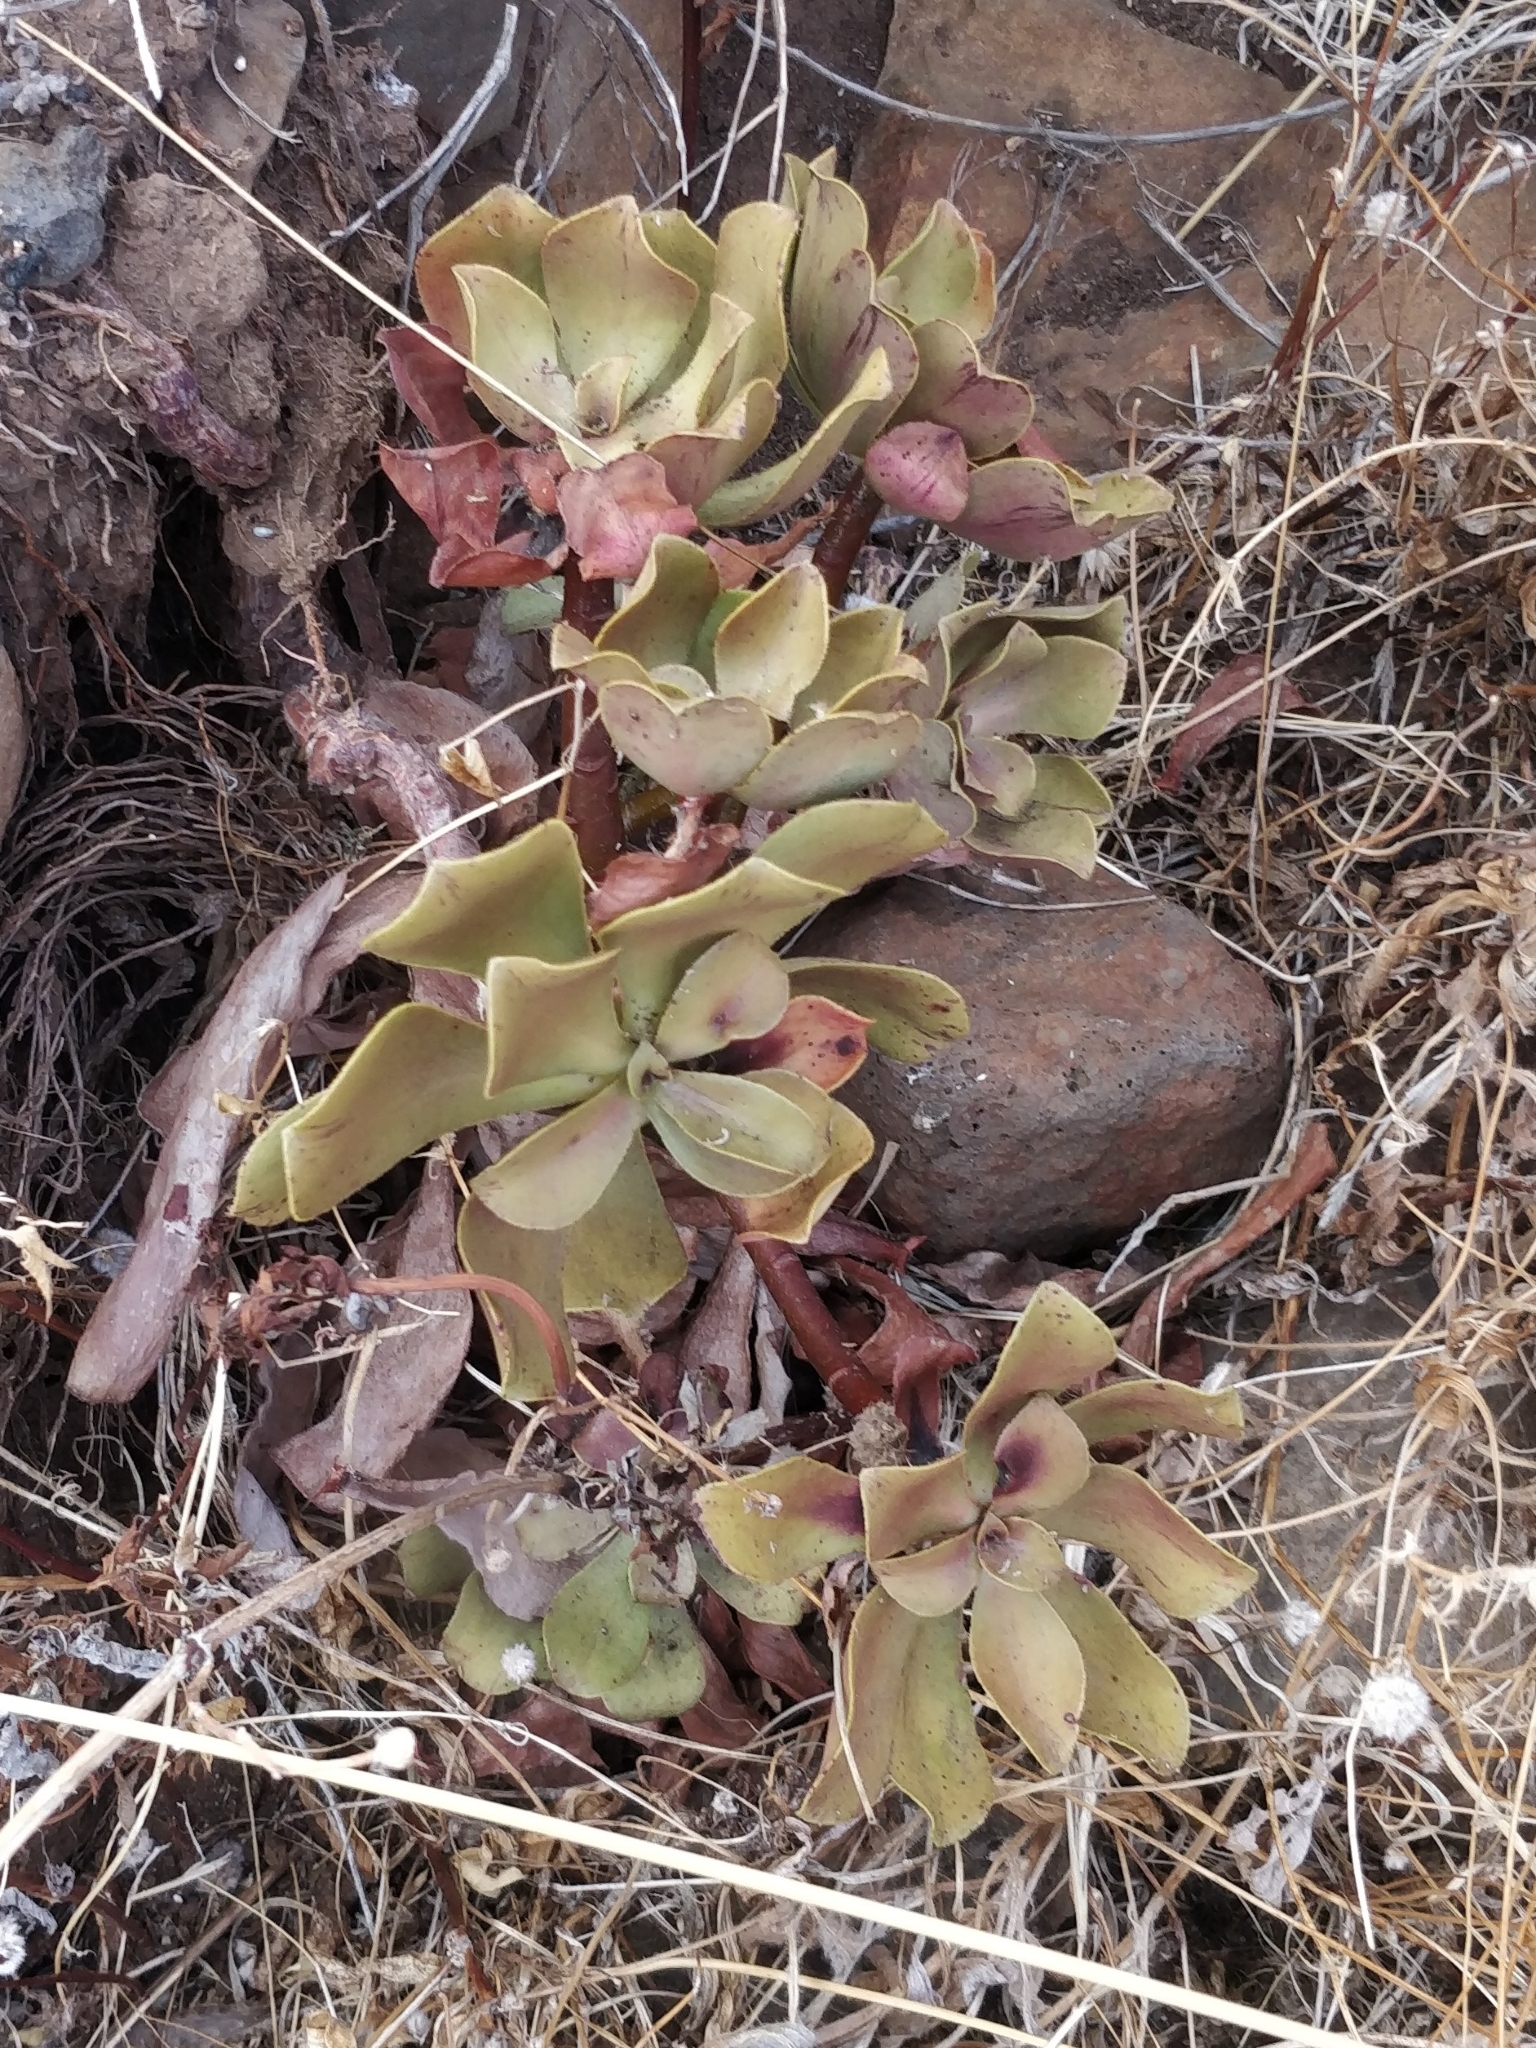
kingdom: Plantae
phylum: Tracheophyta
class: Magnoliopsida
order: Saxifragales
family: Crassulaceae
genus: Aeonium
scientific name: Aeonium glutinosum
